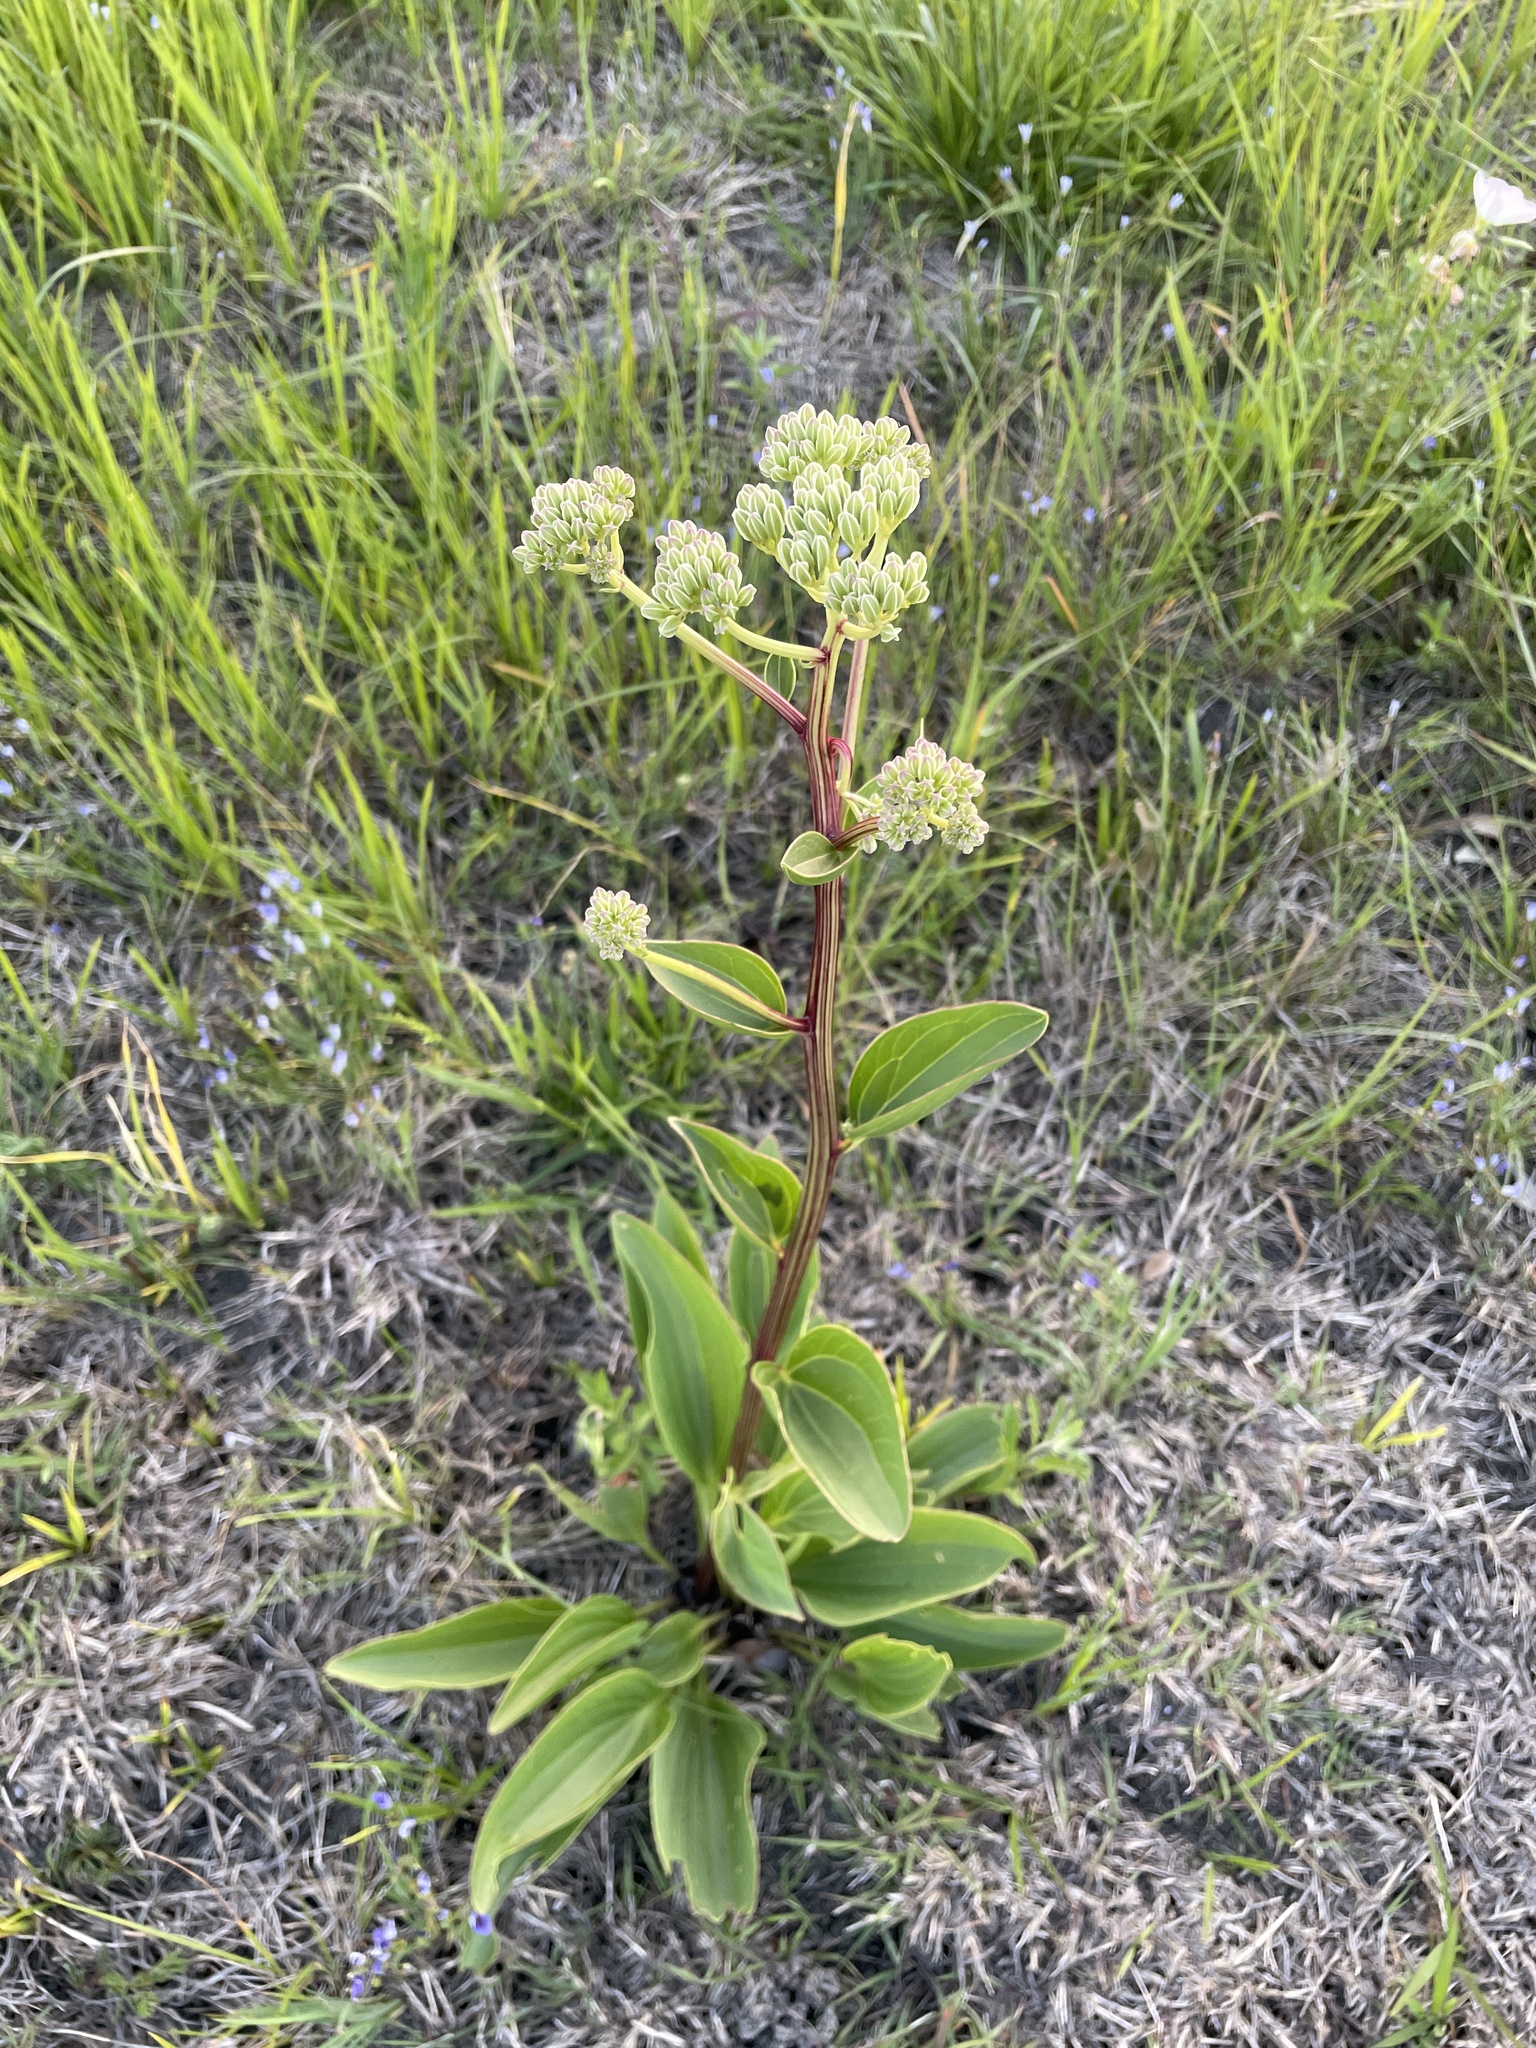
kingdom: Plantae
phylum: Tracheophyta
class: Magnoliopsida
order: Asterales
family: Asteraceae
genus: Arnoglossum
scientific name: Arnoglossum plantagineum
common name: Groove-stemmed indian-plantain
